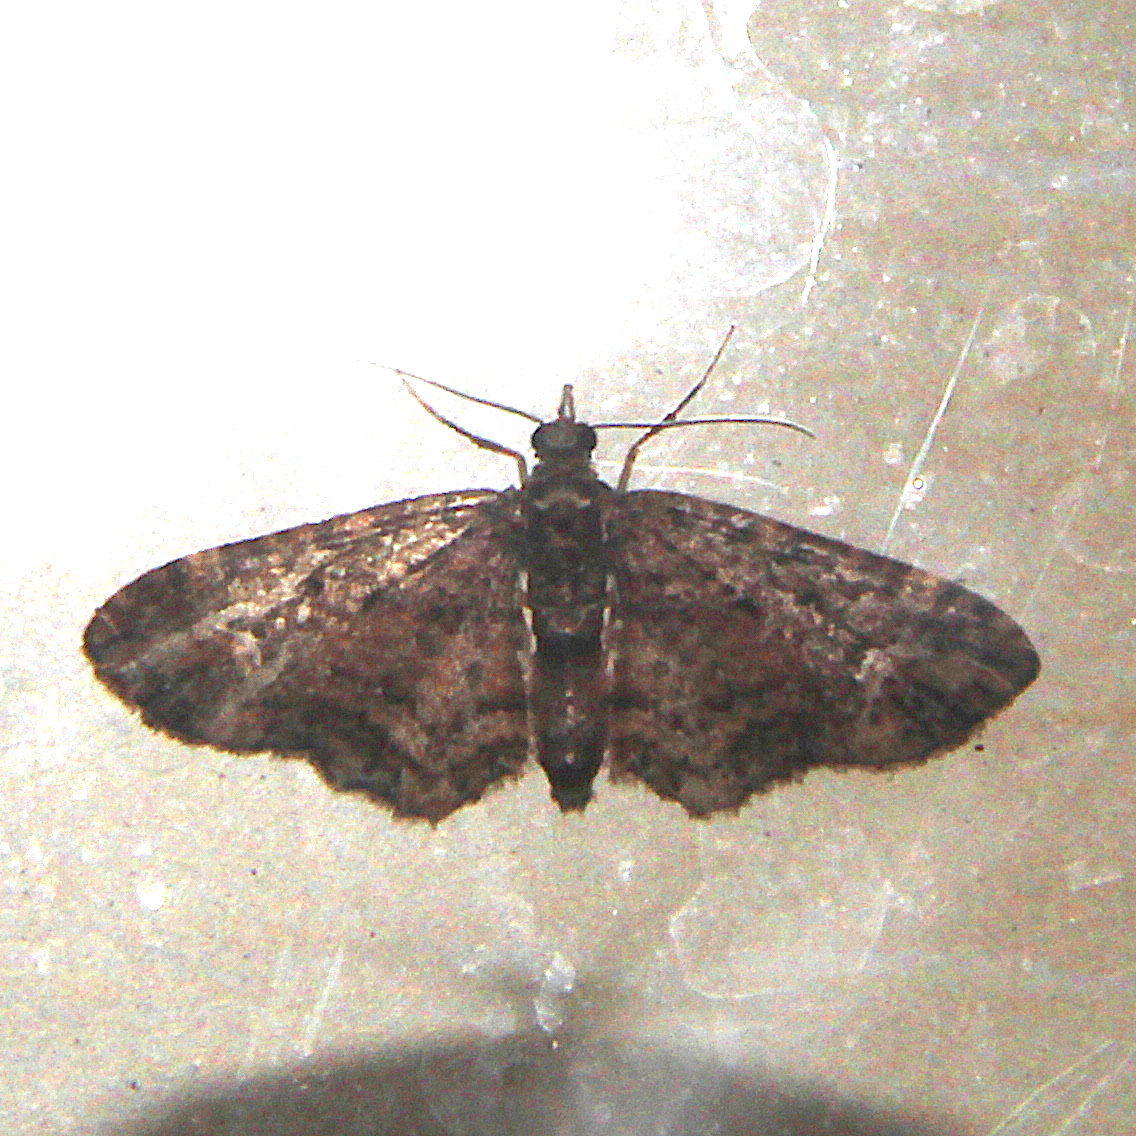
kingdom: Animalia
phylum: Arthropoda
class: Insecta
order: Lepidoptera
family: Geometridae
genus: Pasiphilodes
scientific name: Pasiphilodes testulata
